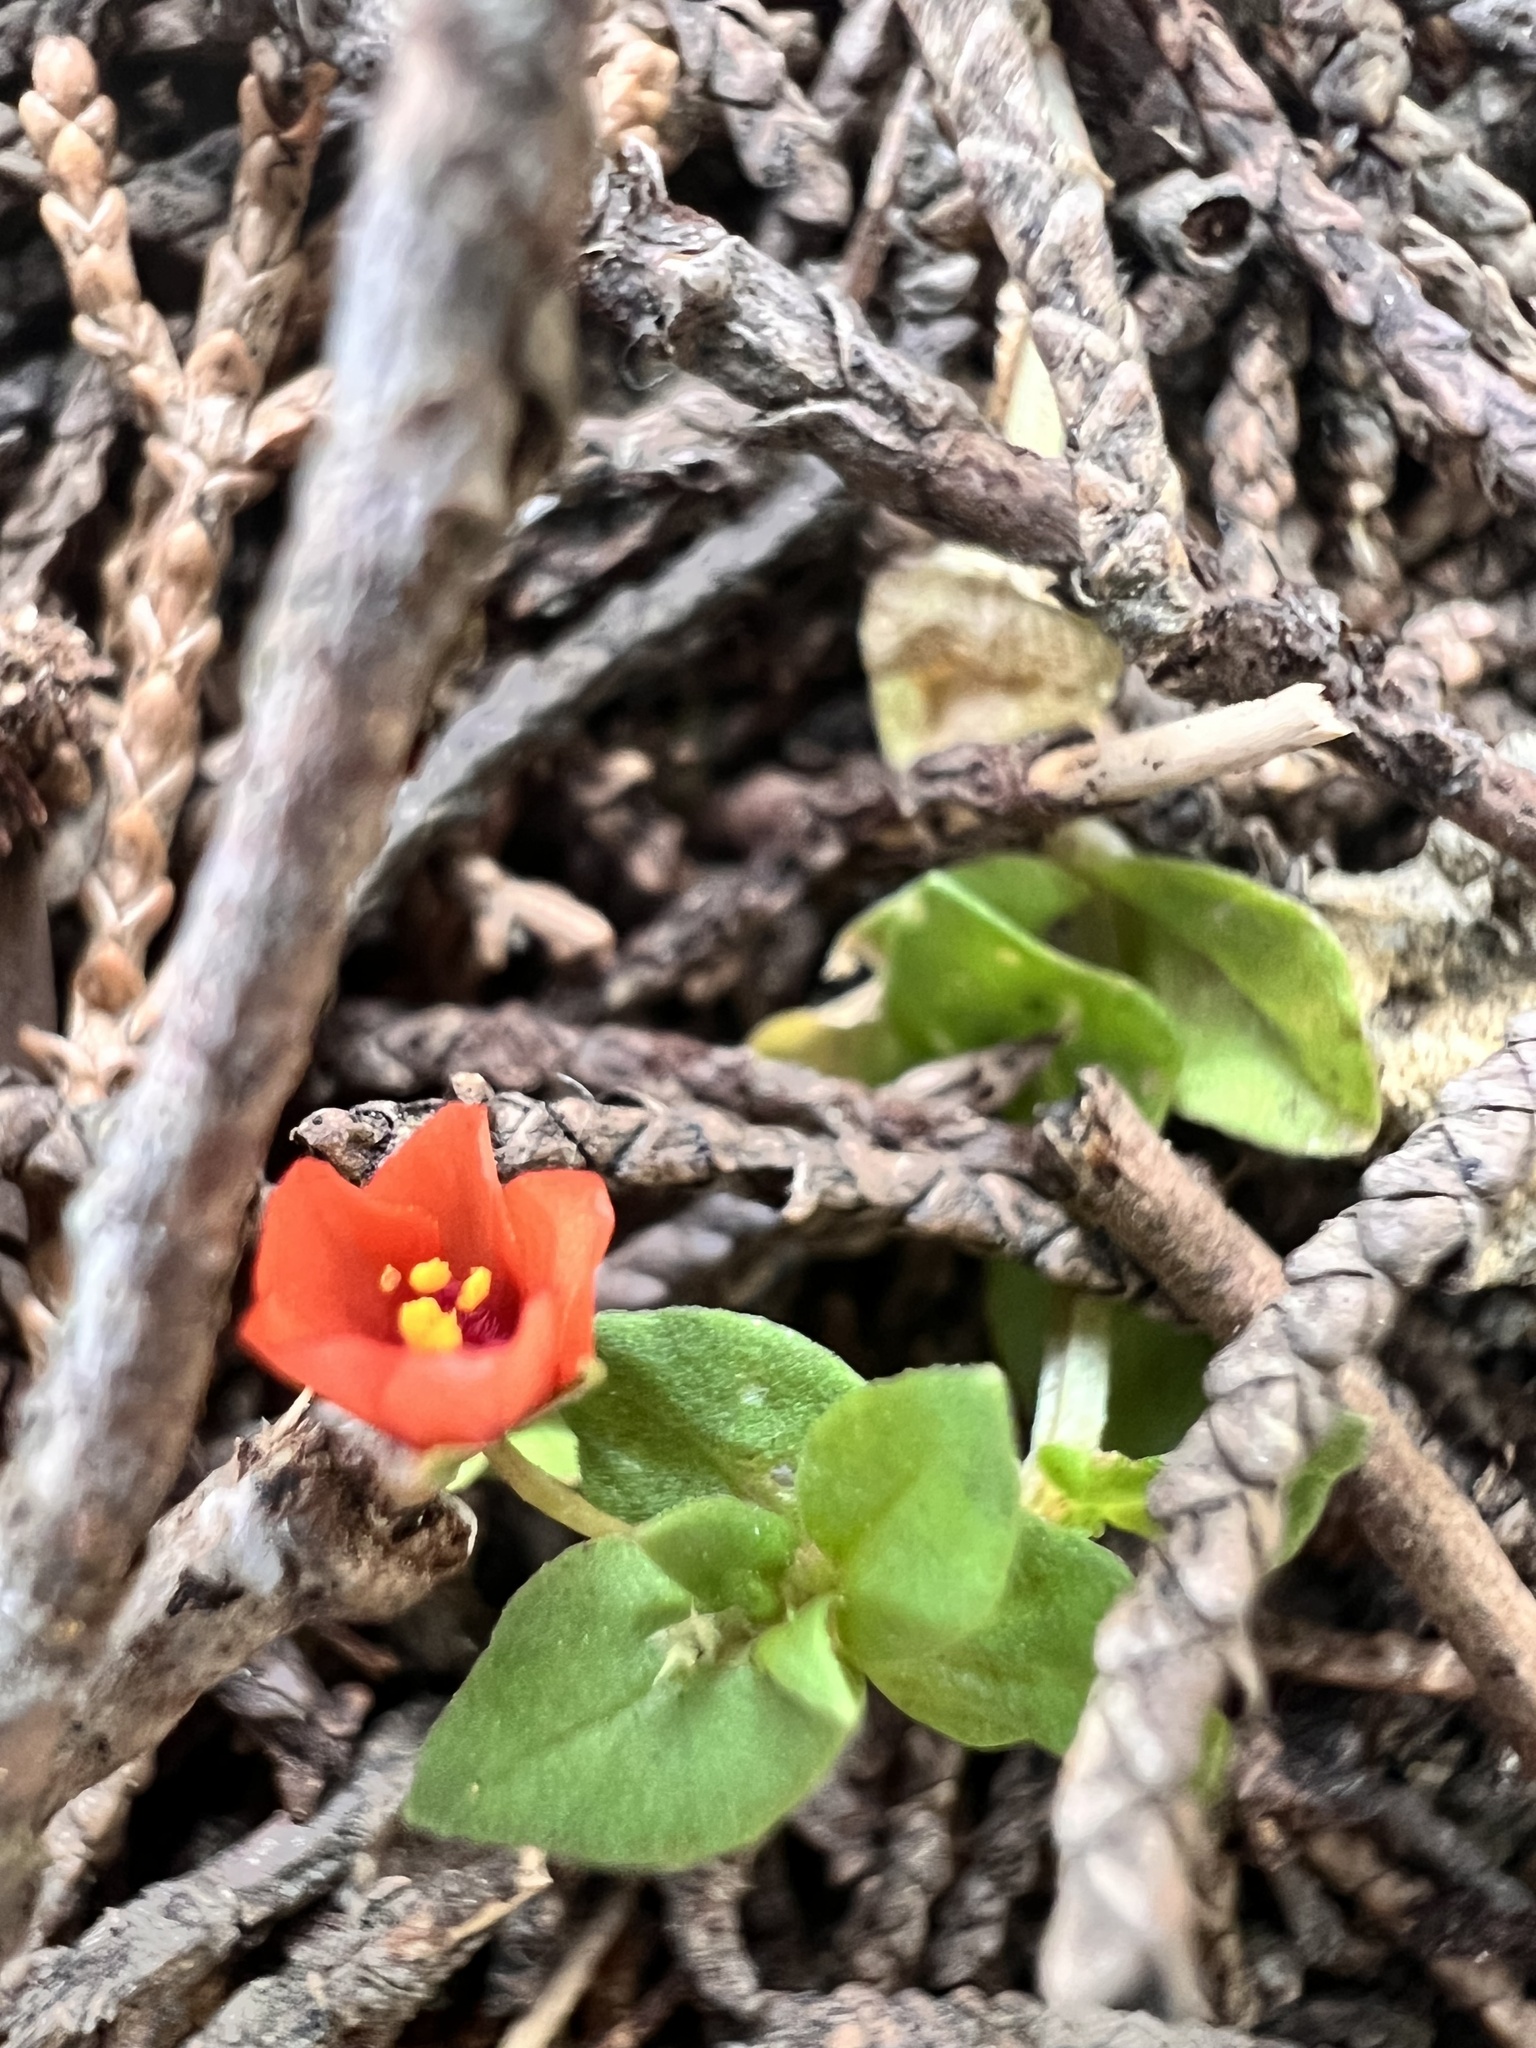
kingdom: Plantae
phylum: Tracheophyta
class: Magnoliopsida
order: Ericales
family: Primulaceae
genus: Lysimachia
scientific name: Lysimachia arvensis
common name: Scarlet pimpernel
